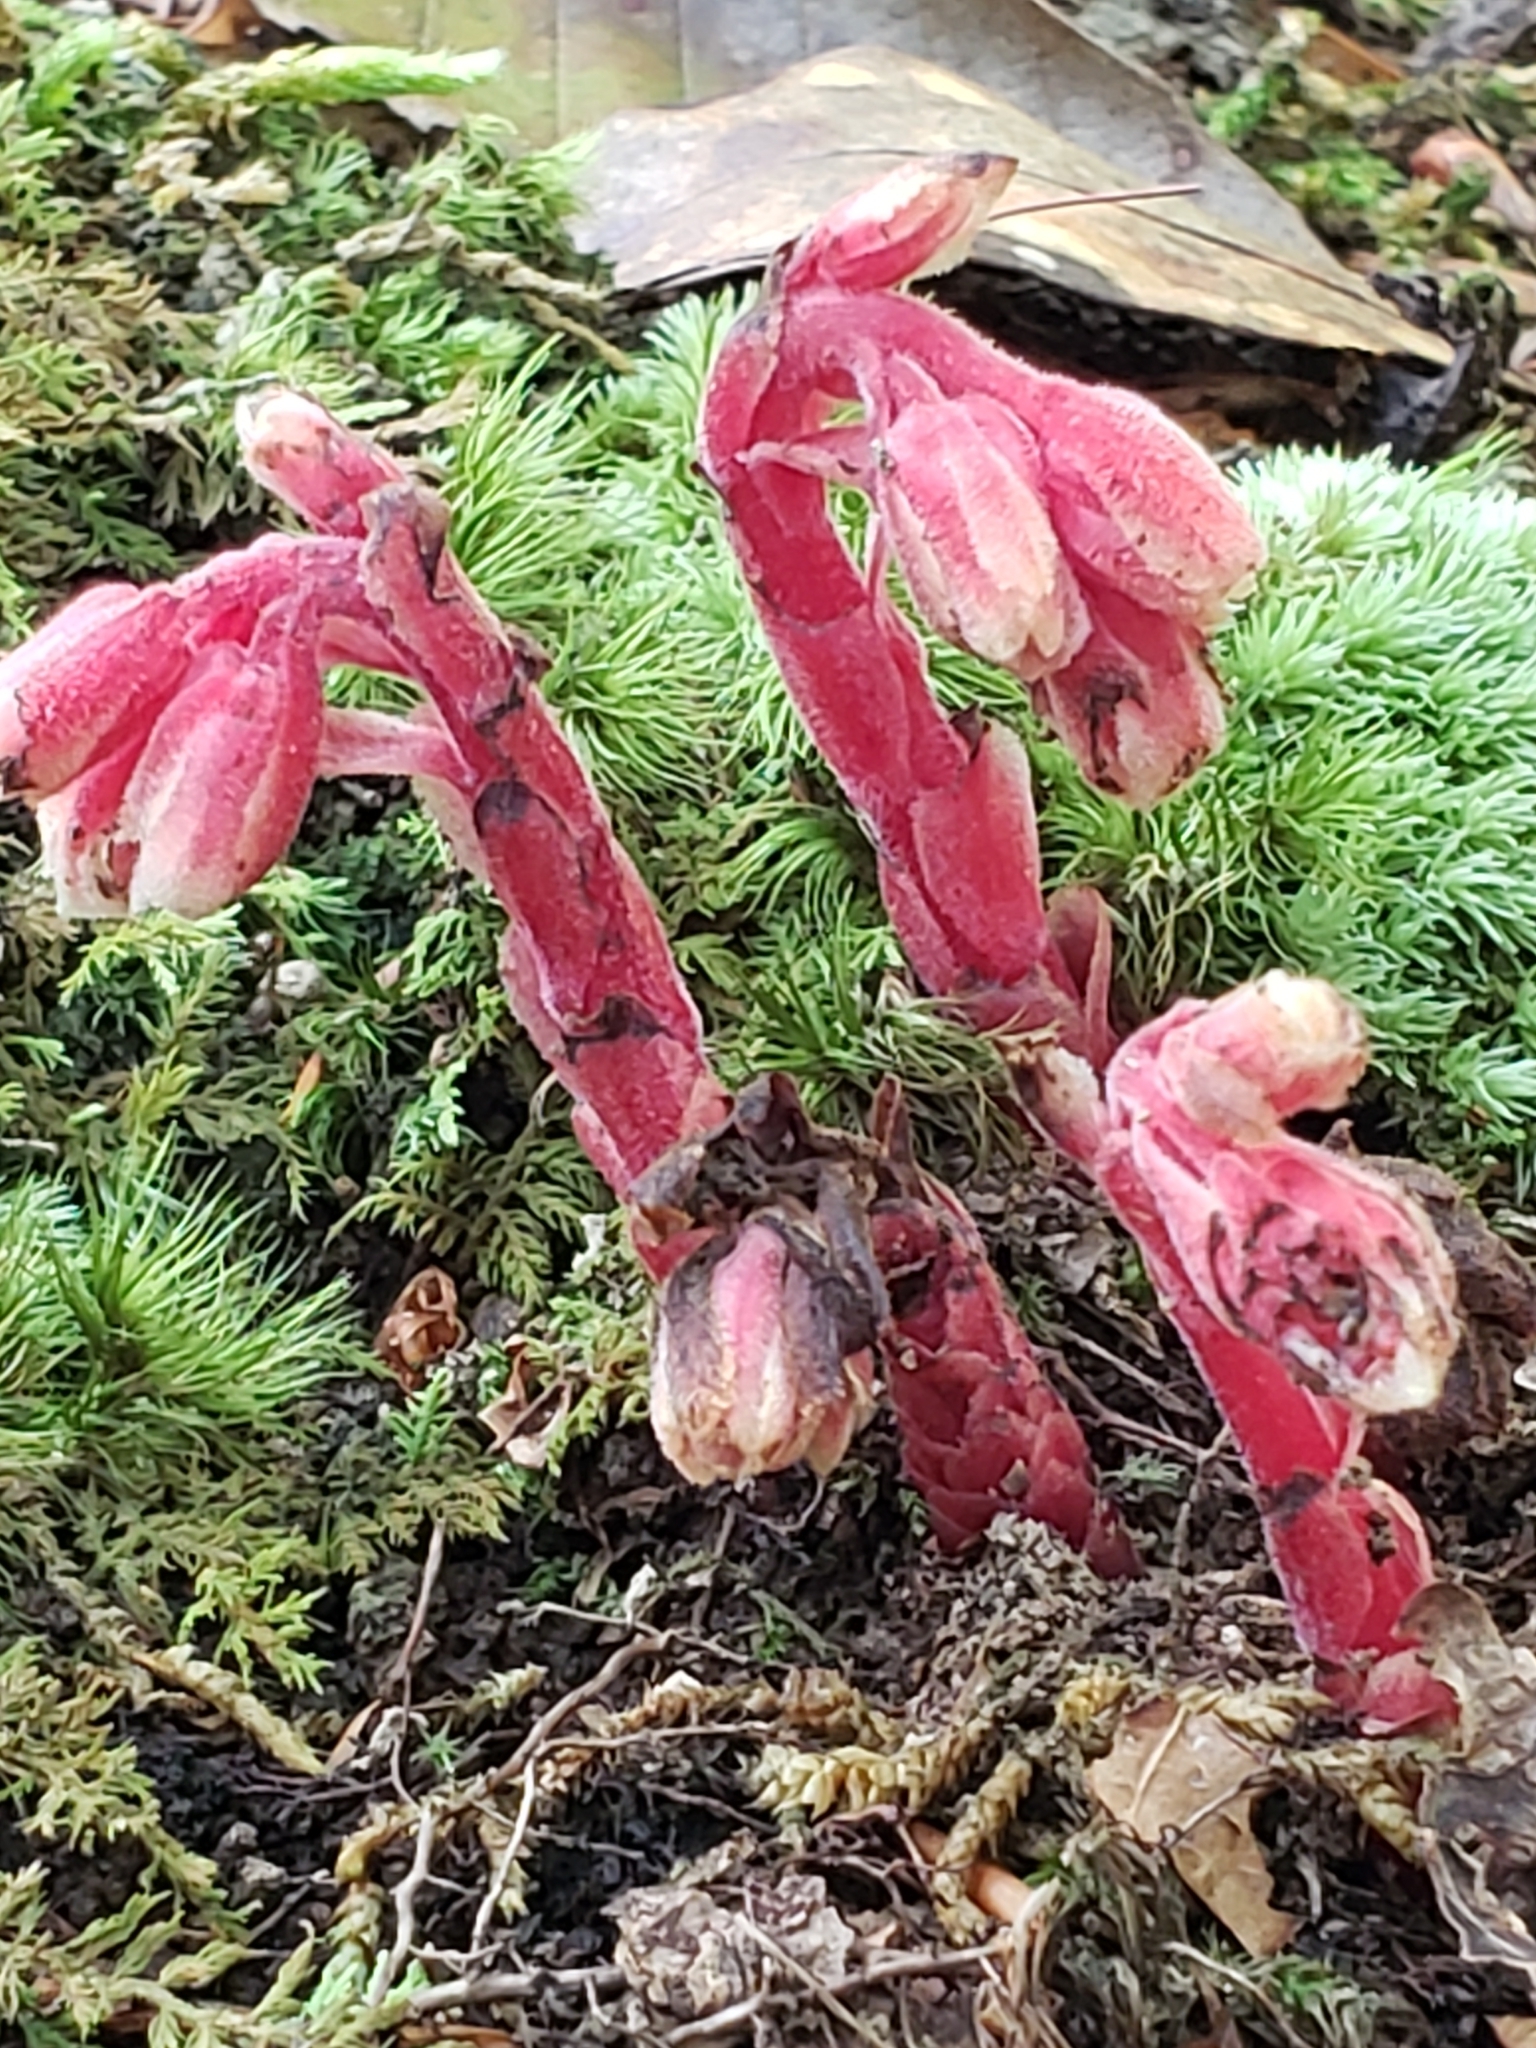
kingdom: Plantae
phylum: Tracheophyta
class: Magnoliopsida
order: Ericales
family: Ericaceae
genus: Hypopitys
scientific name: Hypopitys monotropa
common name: Yellow bird's-nest
